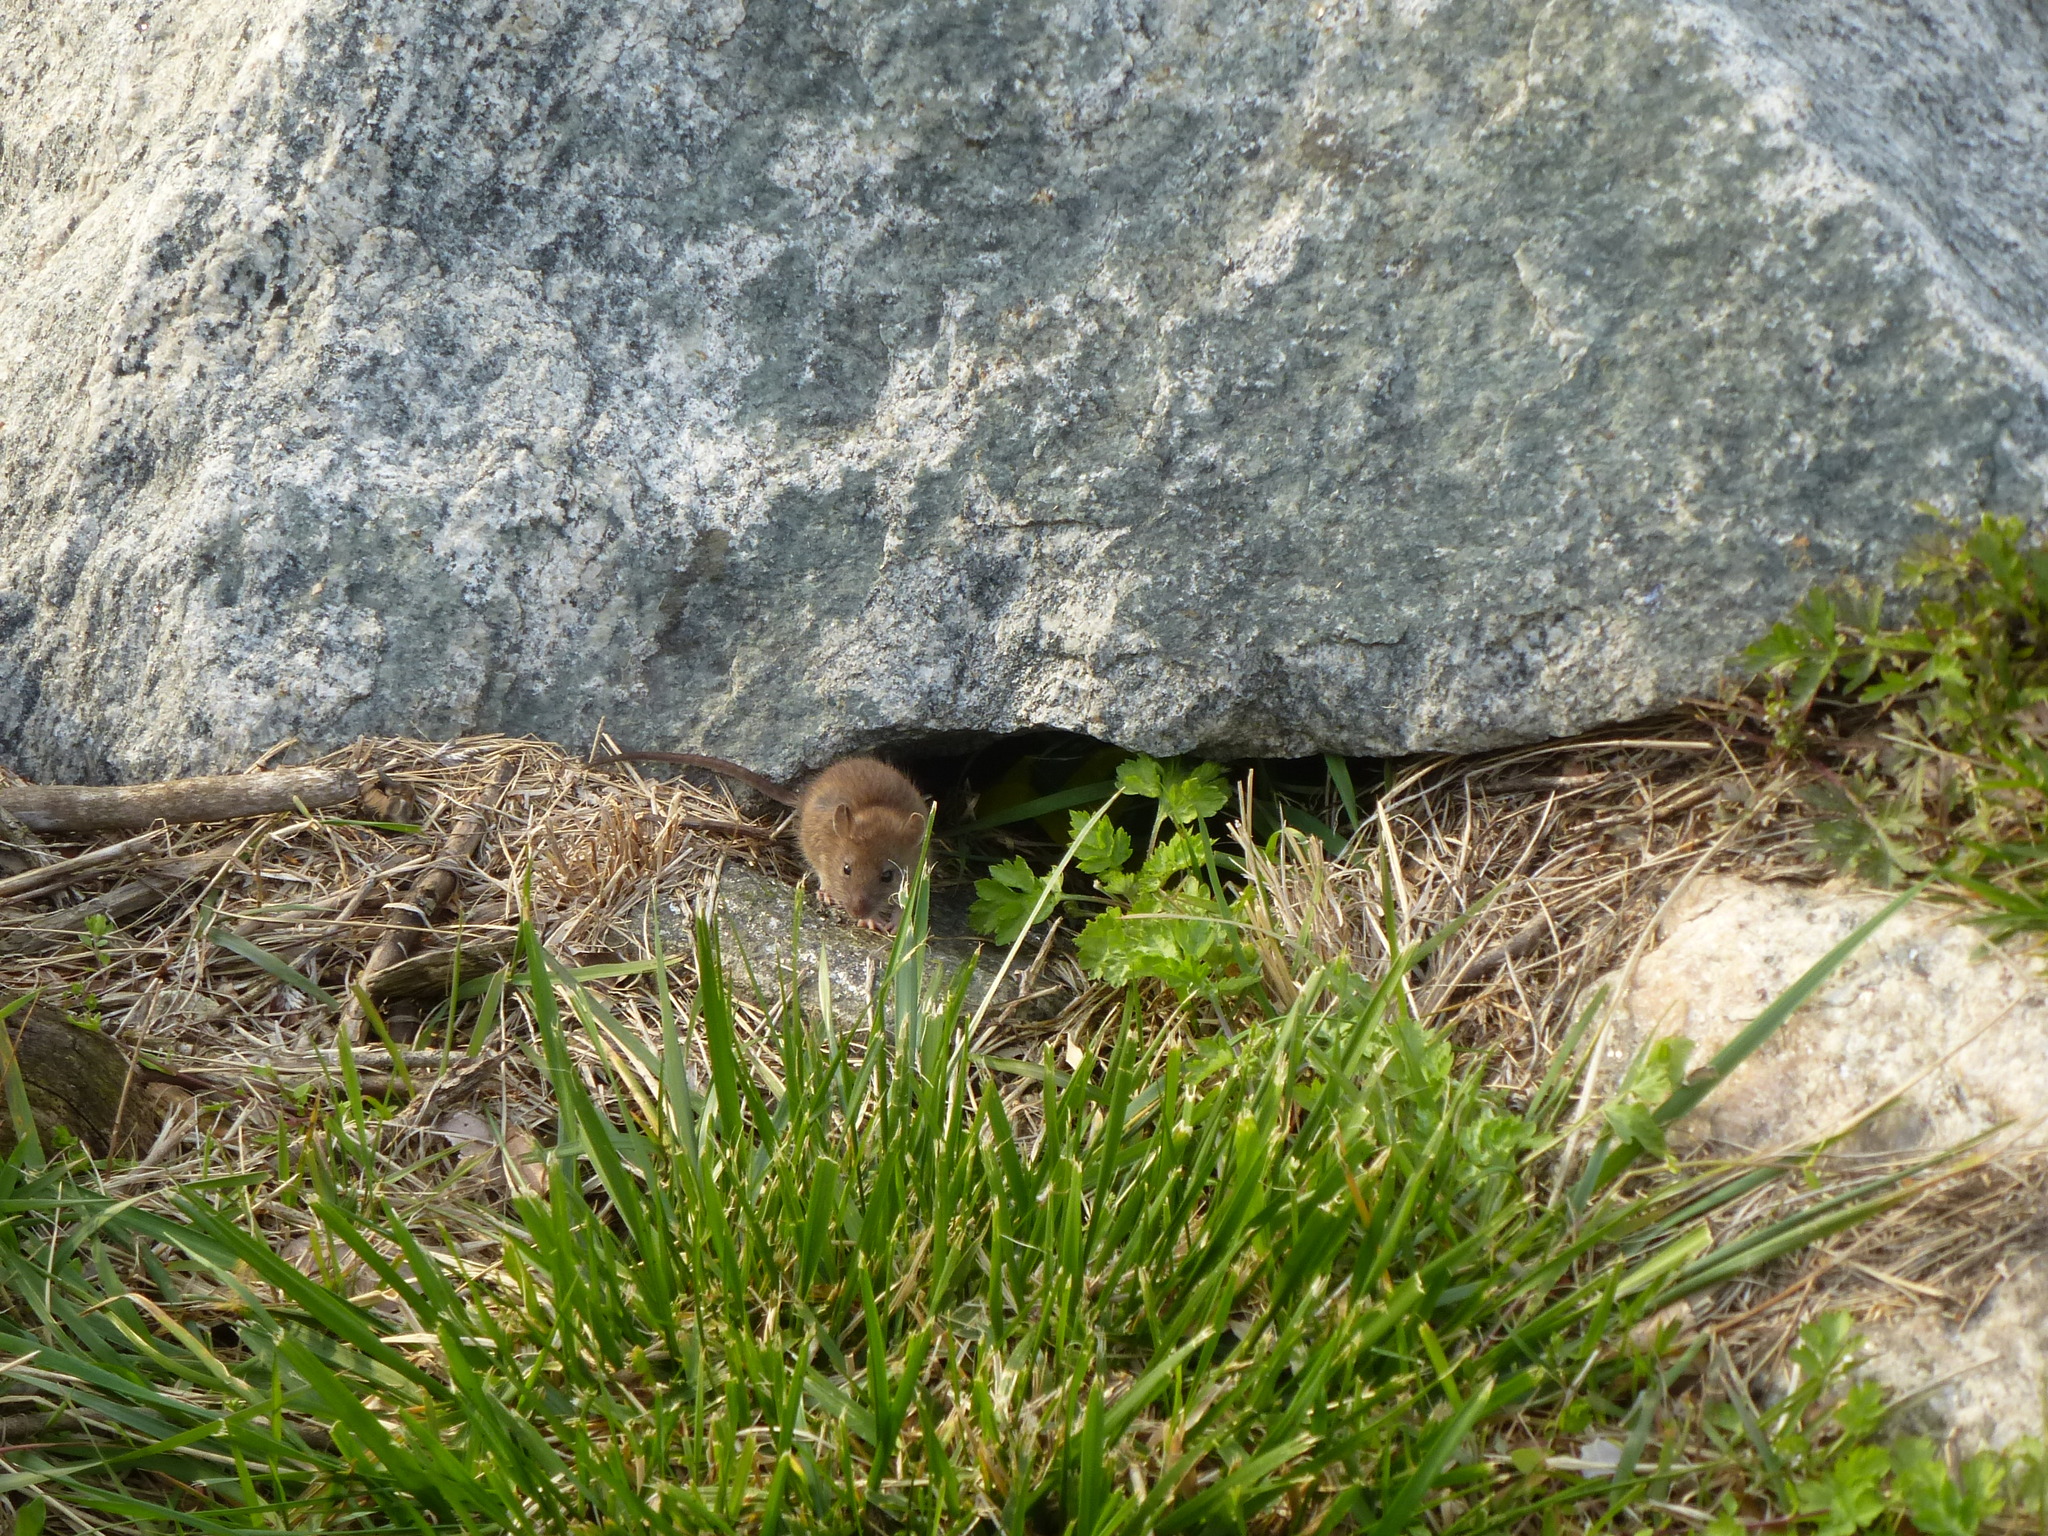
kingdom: Animalia
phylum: Chordata
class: Mammalia
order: Rodentia
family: Muridae
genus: Rattus
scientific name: Rattus norvegicus
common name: Brown rat
